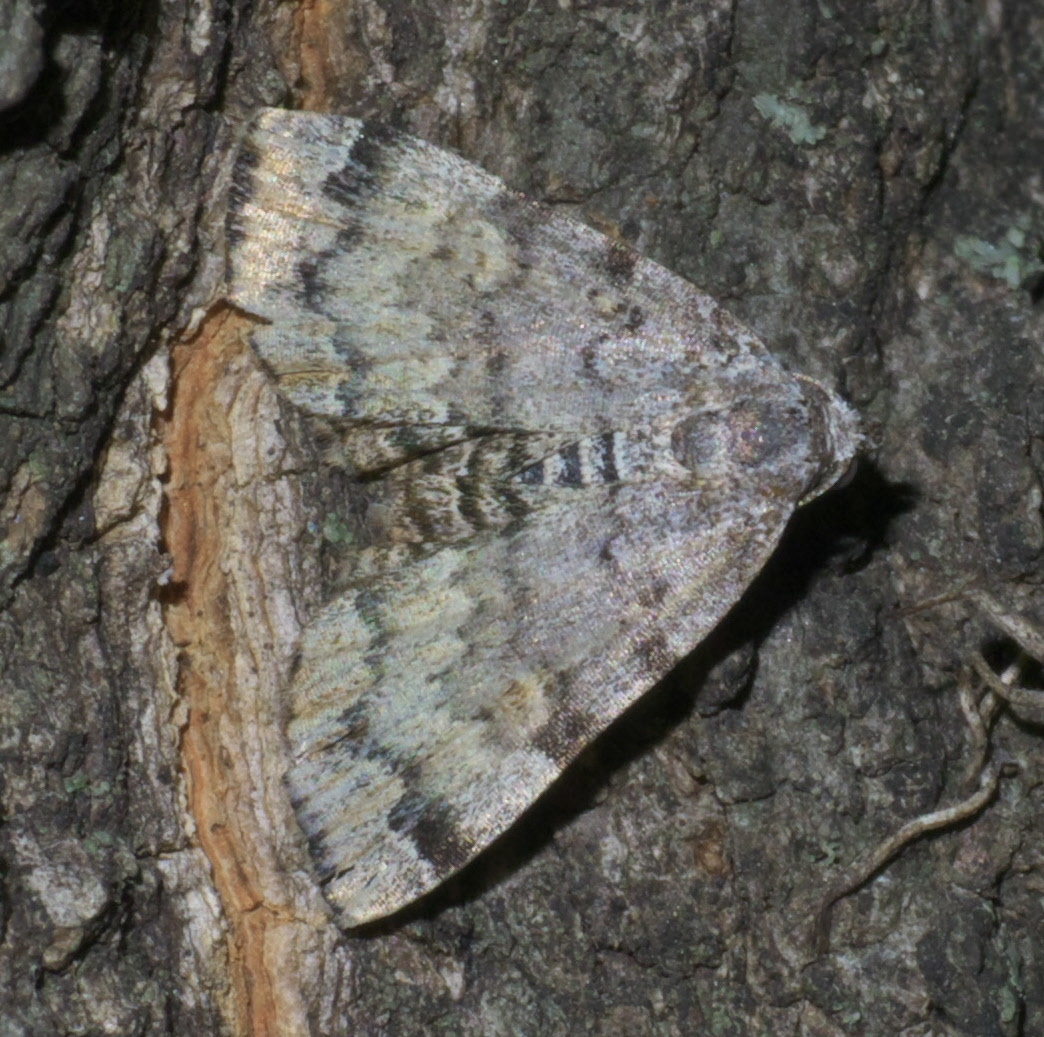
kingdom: Animalia
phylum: Arthropoda
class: Insecta
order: Lepidoptera
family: Erebidae
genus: Idia
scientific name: Idia americalis
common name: American idia moth
